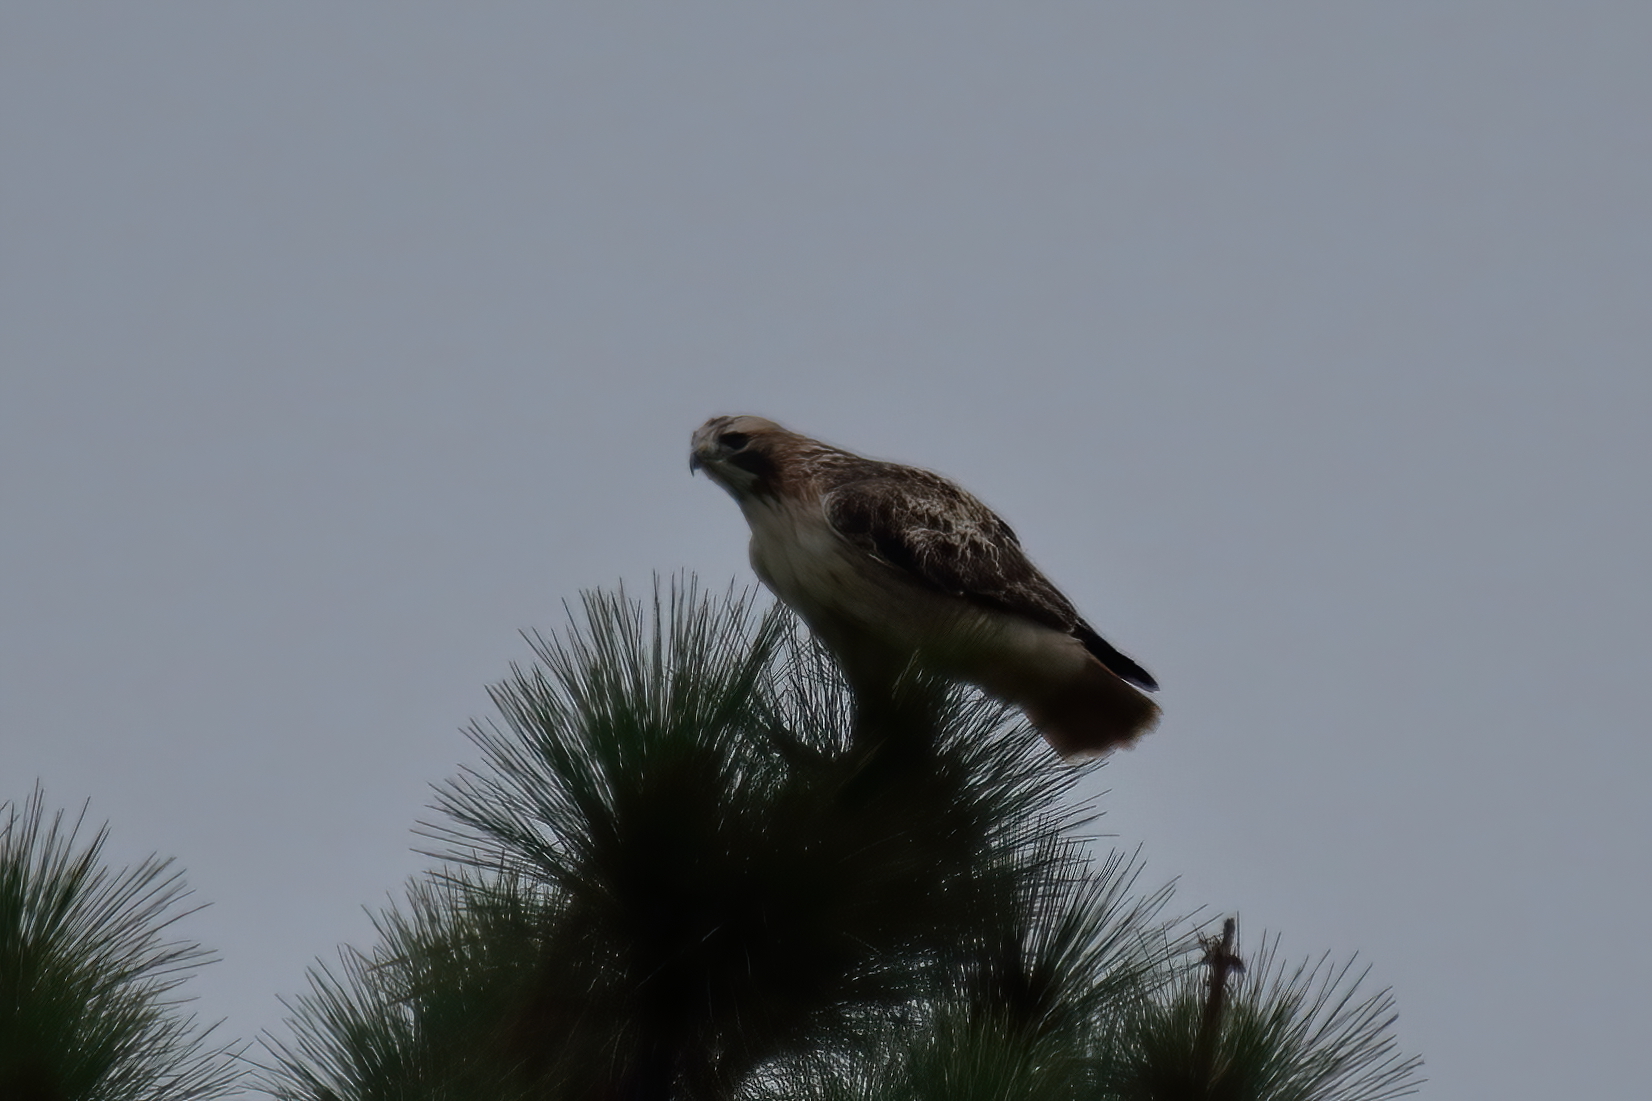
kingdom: Animalia
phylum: Chordata
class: Aves
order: Accipitriformes
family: Accipitridae
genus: Buteo
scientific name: Buteo jamaicensis
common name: Red-tailed hawk
